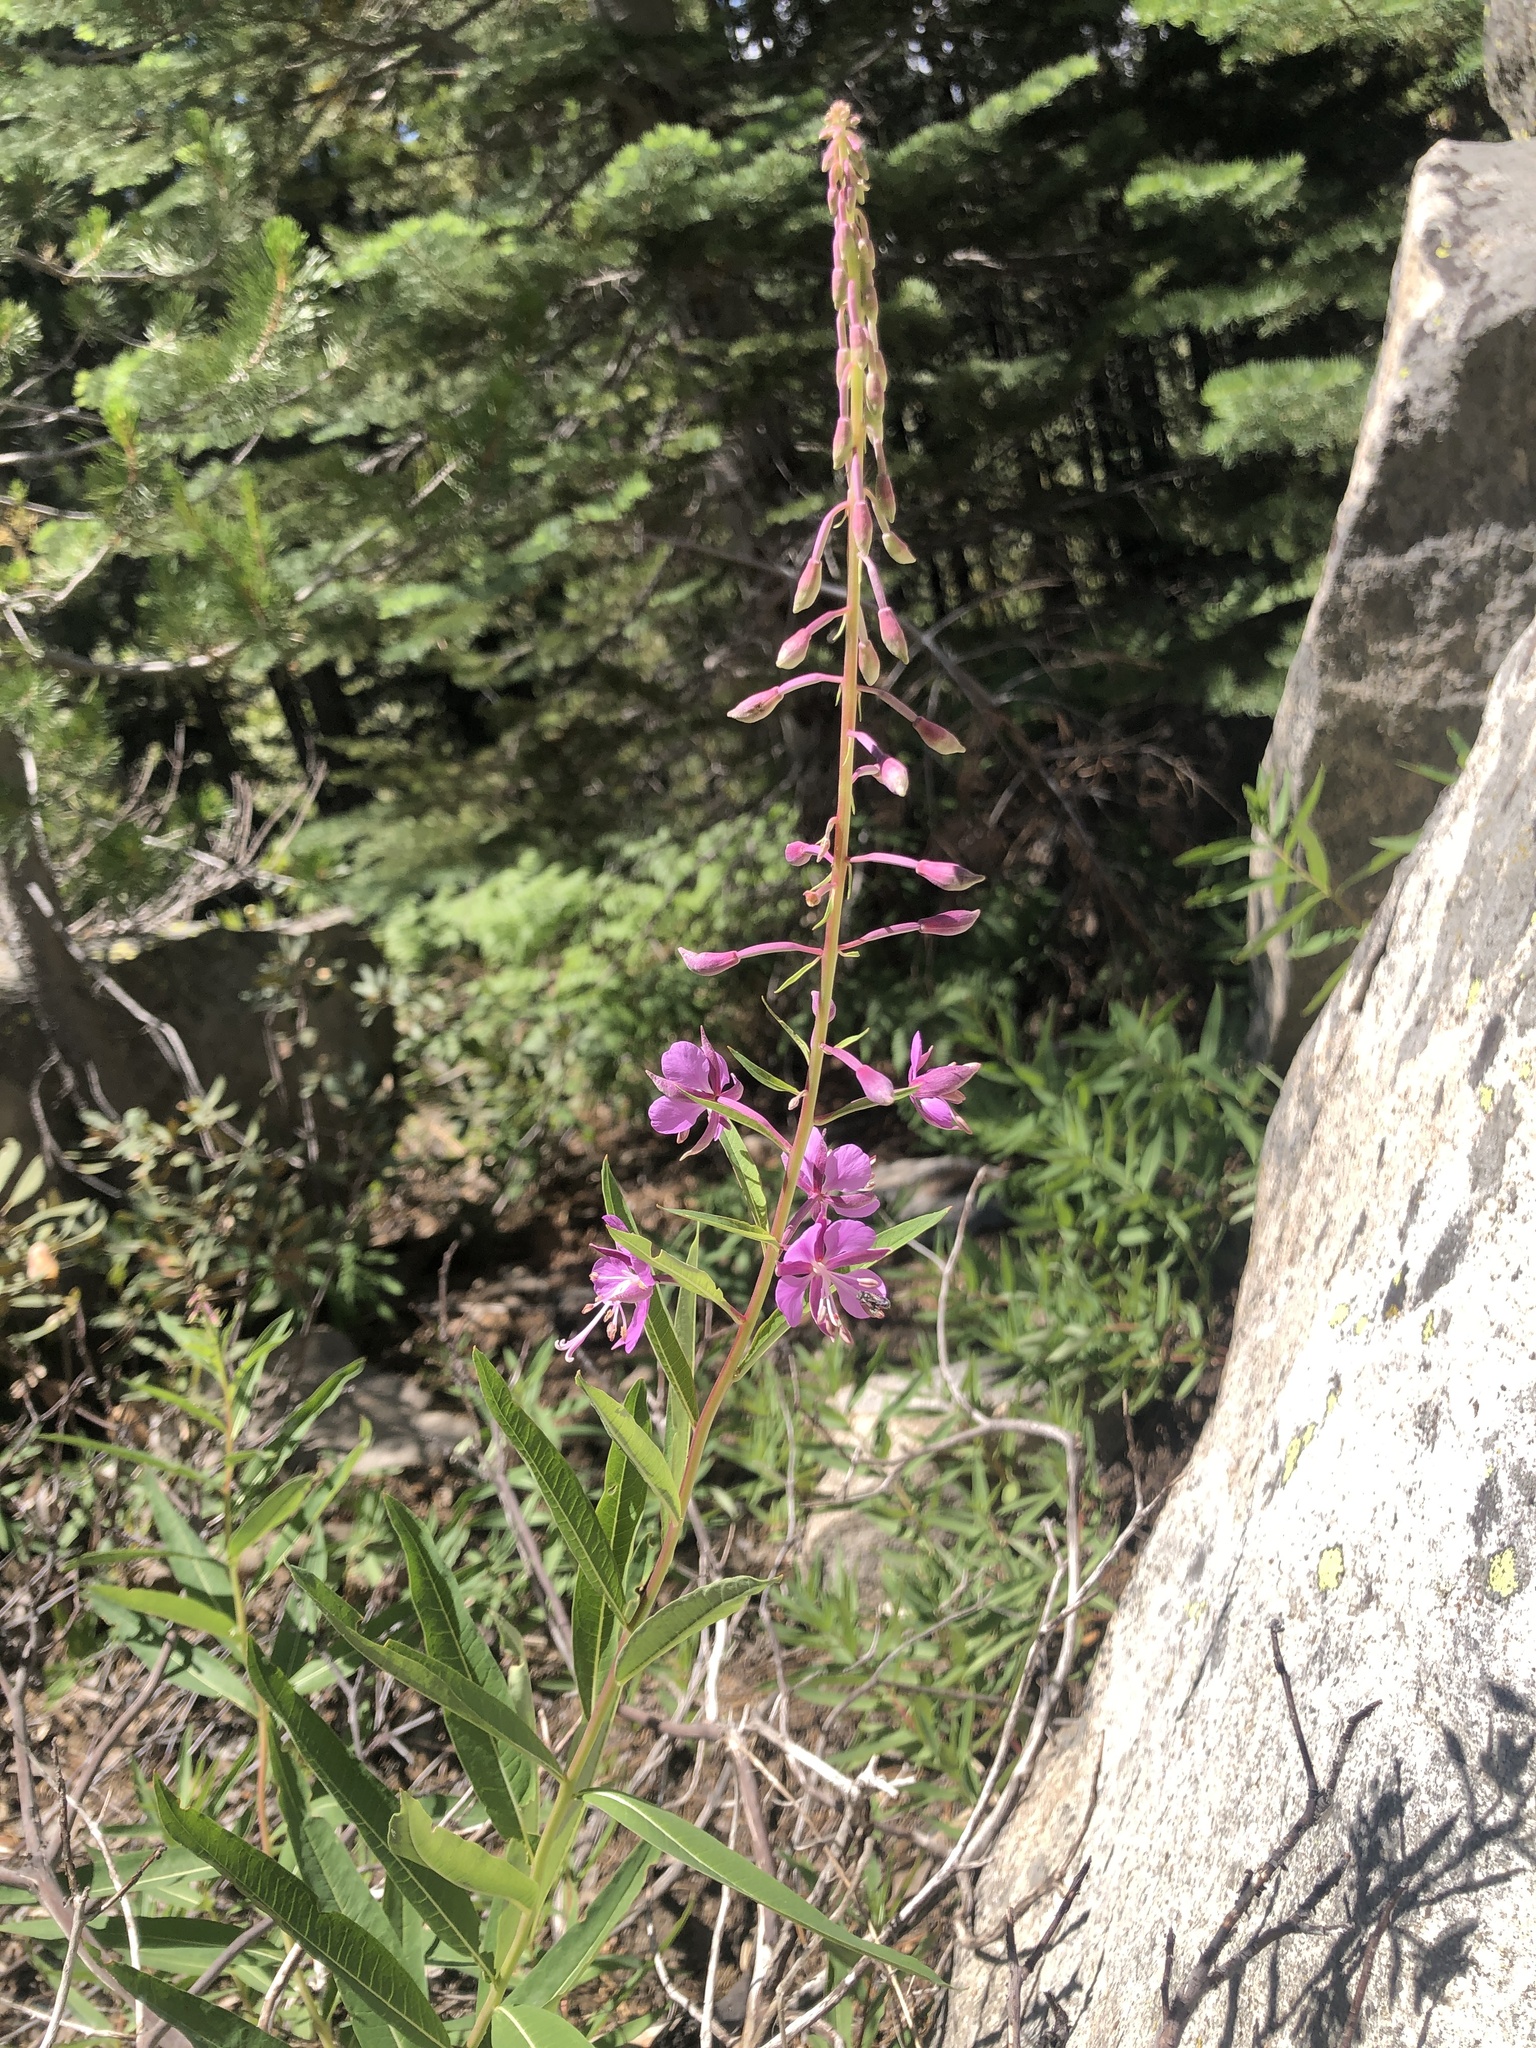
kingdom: Plantae
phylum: Tracheophyta
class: Magnoliopsida
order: Myrtales
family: Onagraceae
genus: Chamaenerion
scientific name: Chamaenerion angustifolium
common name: Fireweed
